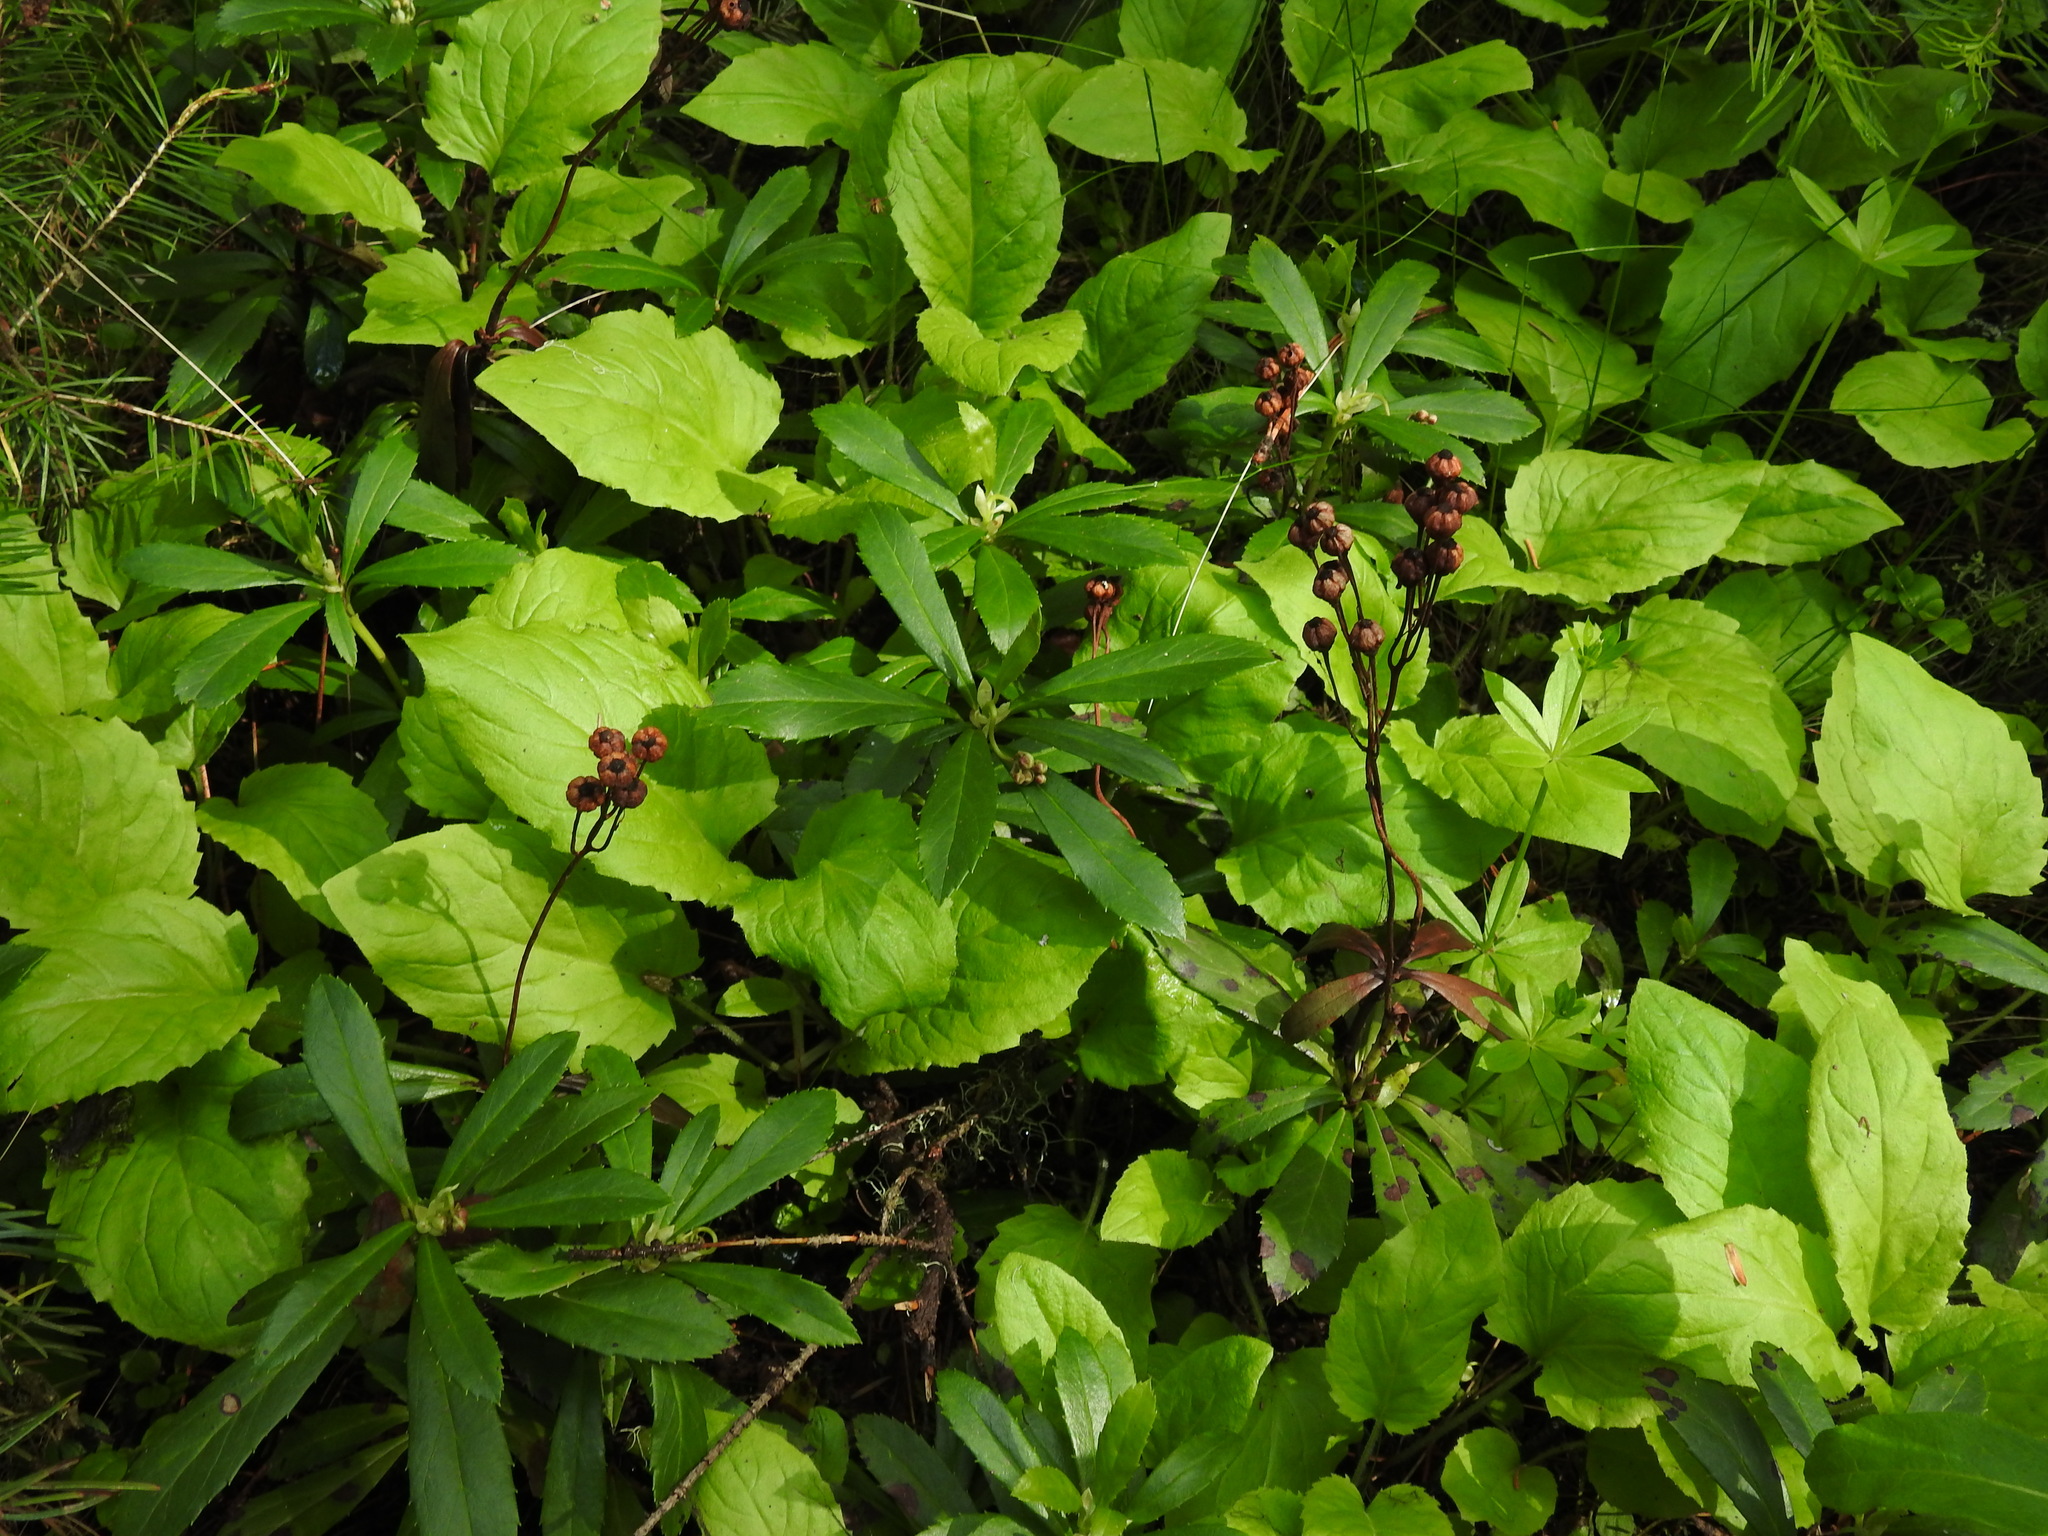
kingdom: Plantae
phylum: Tracheophyta
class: Magnoliopsida
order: Ericales
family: Ericaceae
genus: Chimaphila
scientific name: Chimaphila umbellata
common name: Pipsissewa
